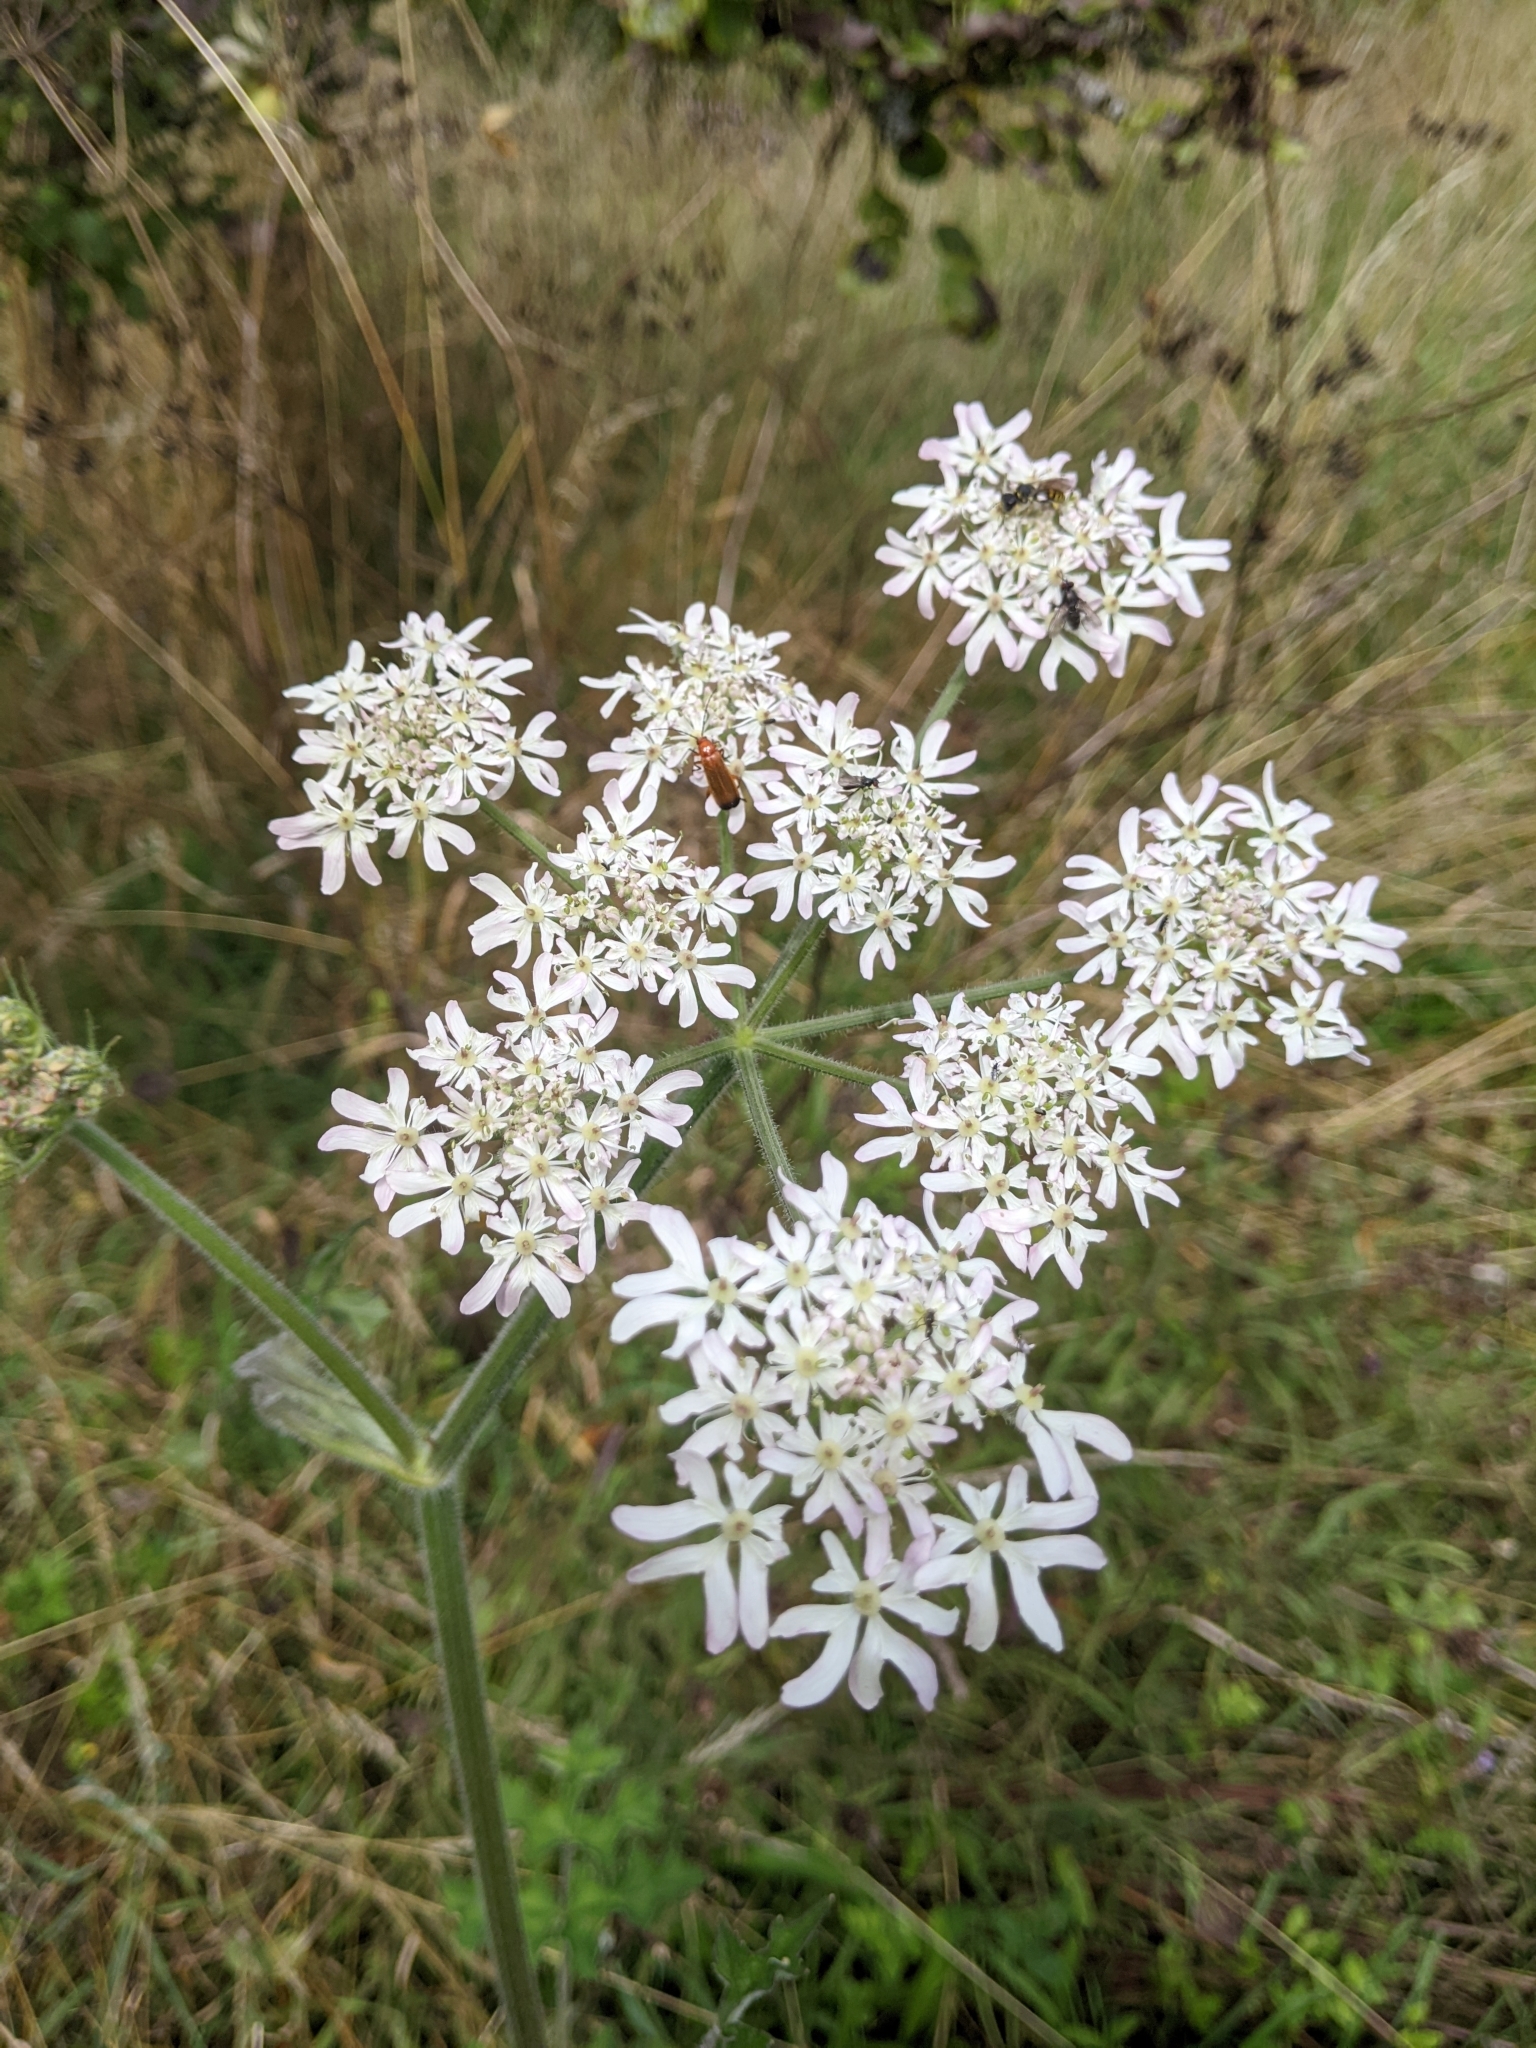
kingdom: Plantae
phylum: Tracheophyta
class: Magnoliopsida
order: Apiales
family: Apiaceae
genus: Heracleum
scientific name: Heracleum sphondylium
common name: Hogweed
